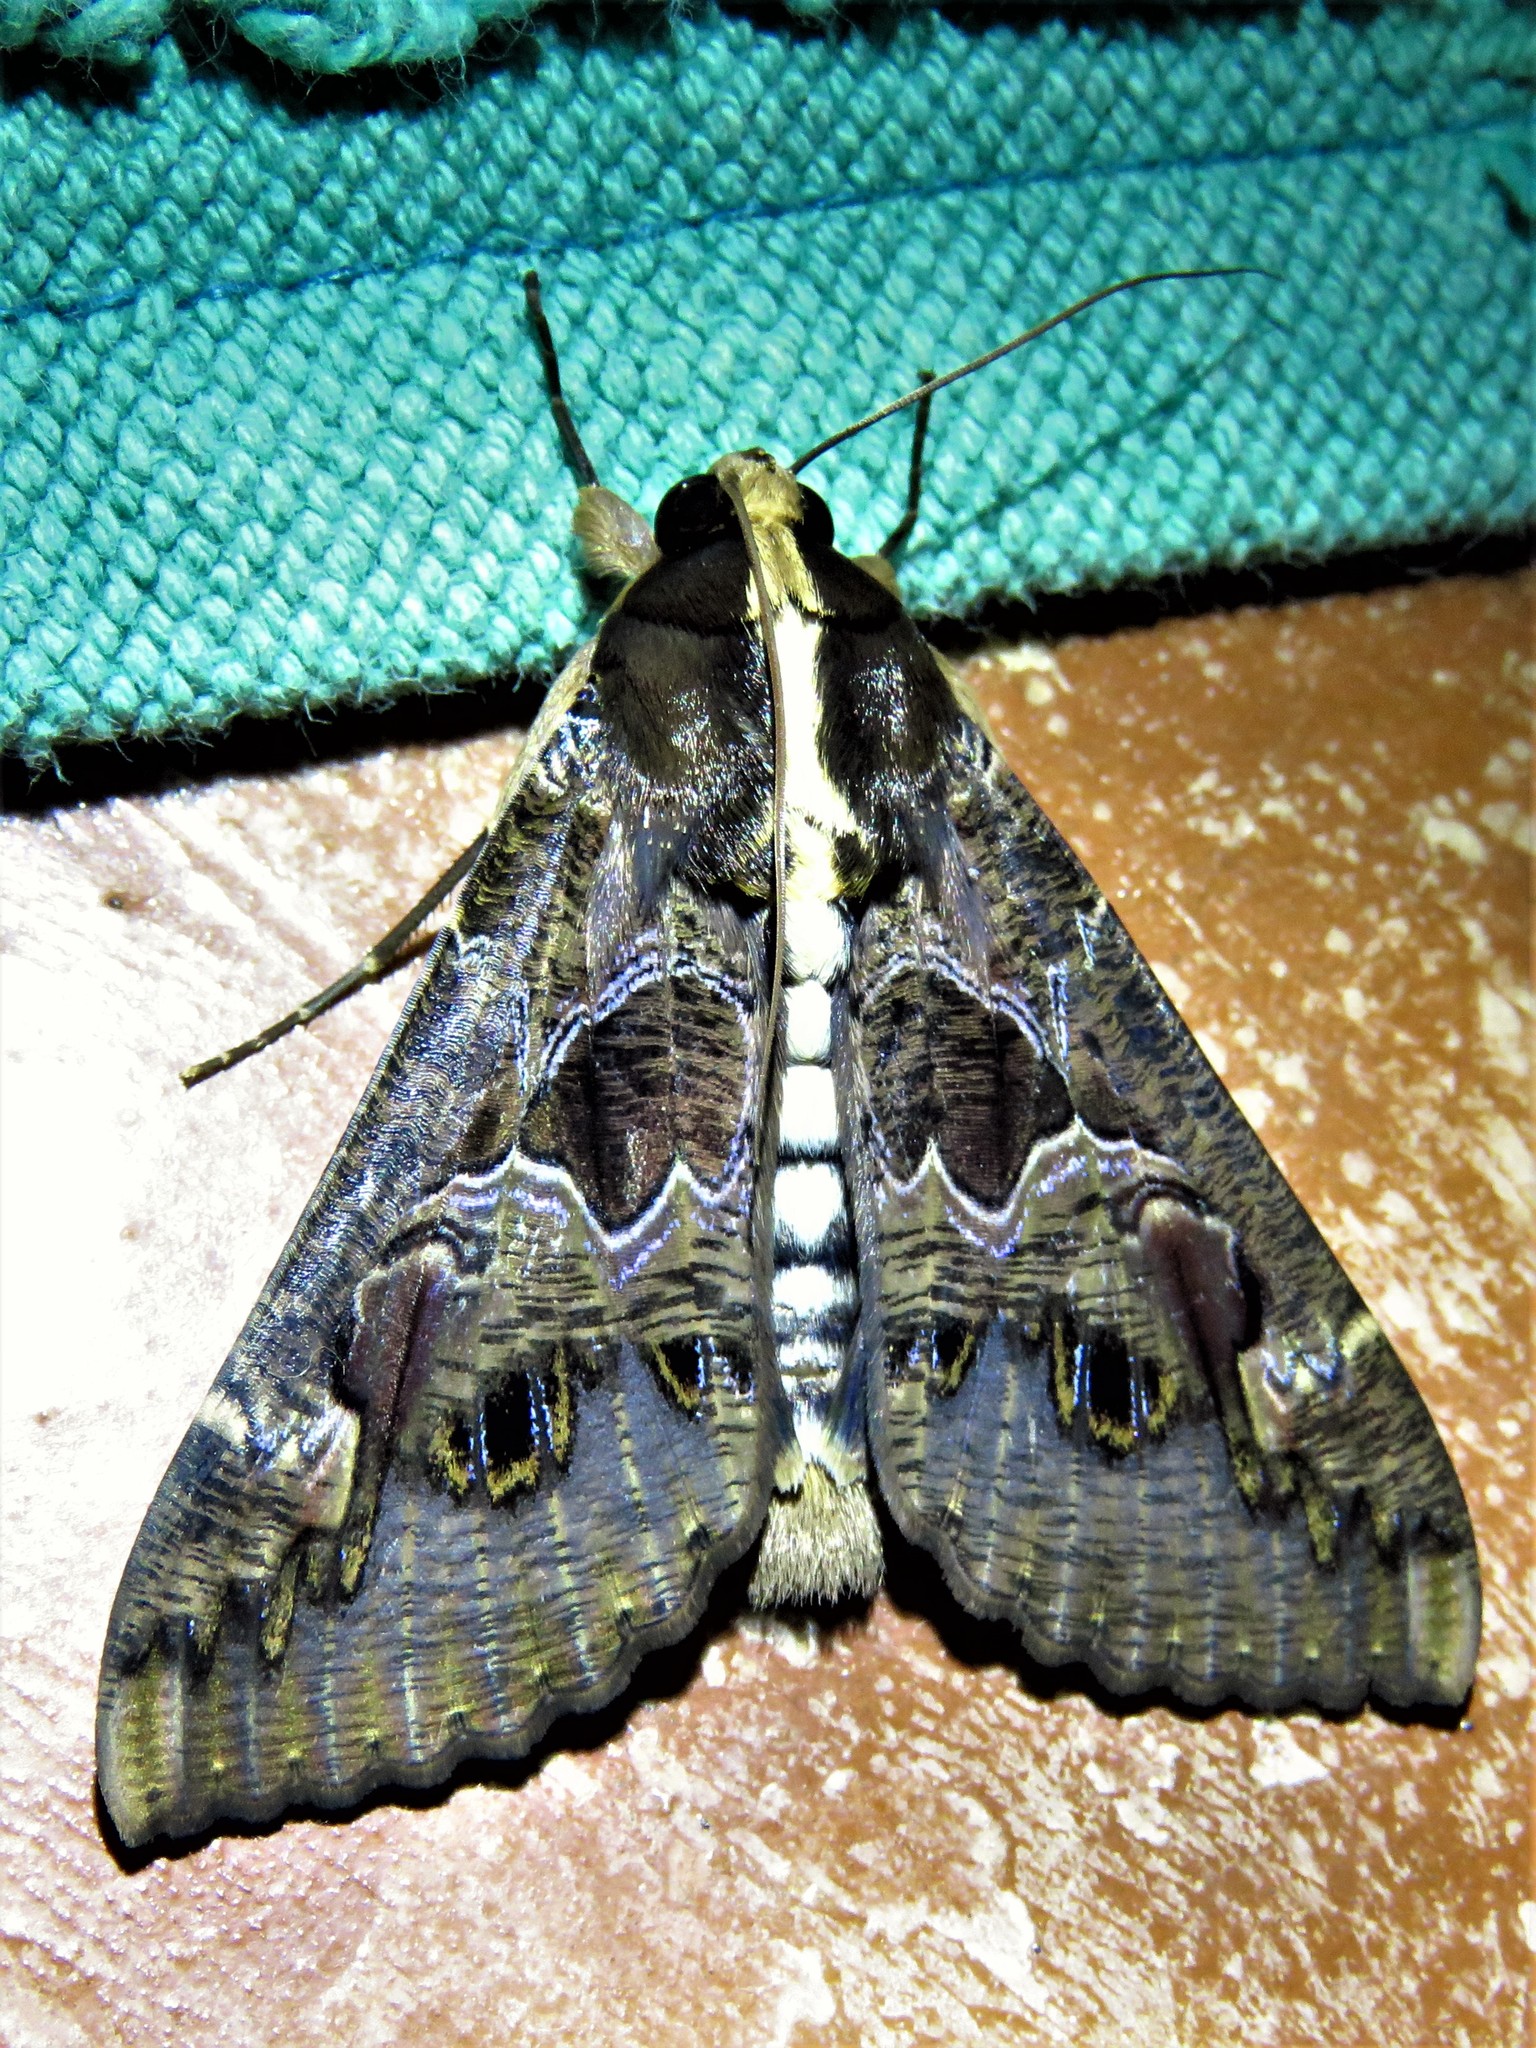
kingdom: Animalia
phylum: Arthropoda
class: Insecta
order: Lepidoptera
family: Erebidae
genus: Sphingomorpha
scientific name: Sphingomorpha chlorea
